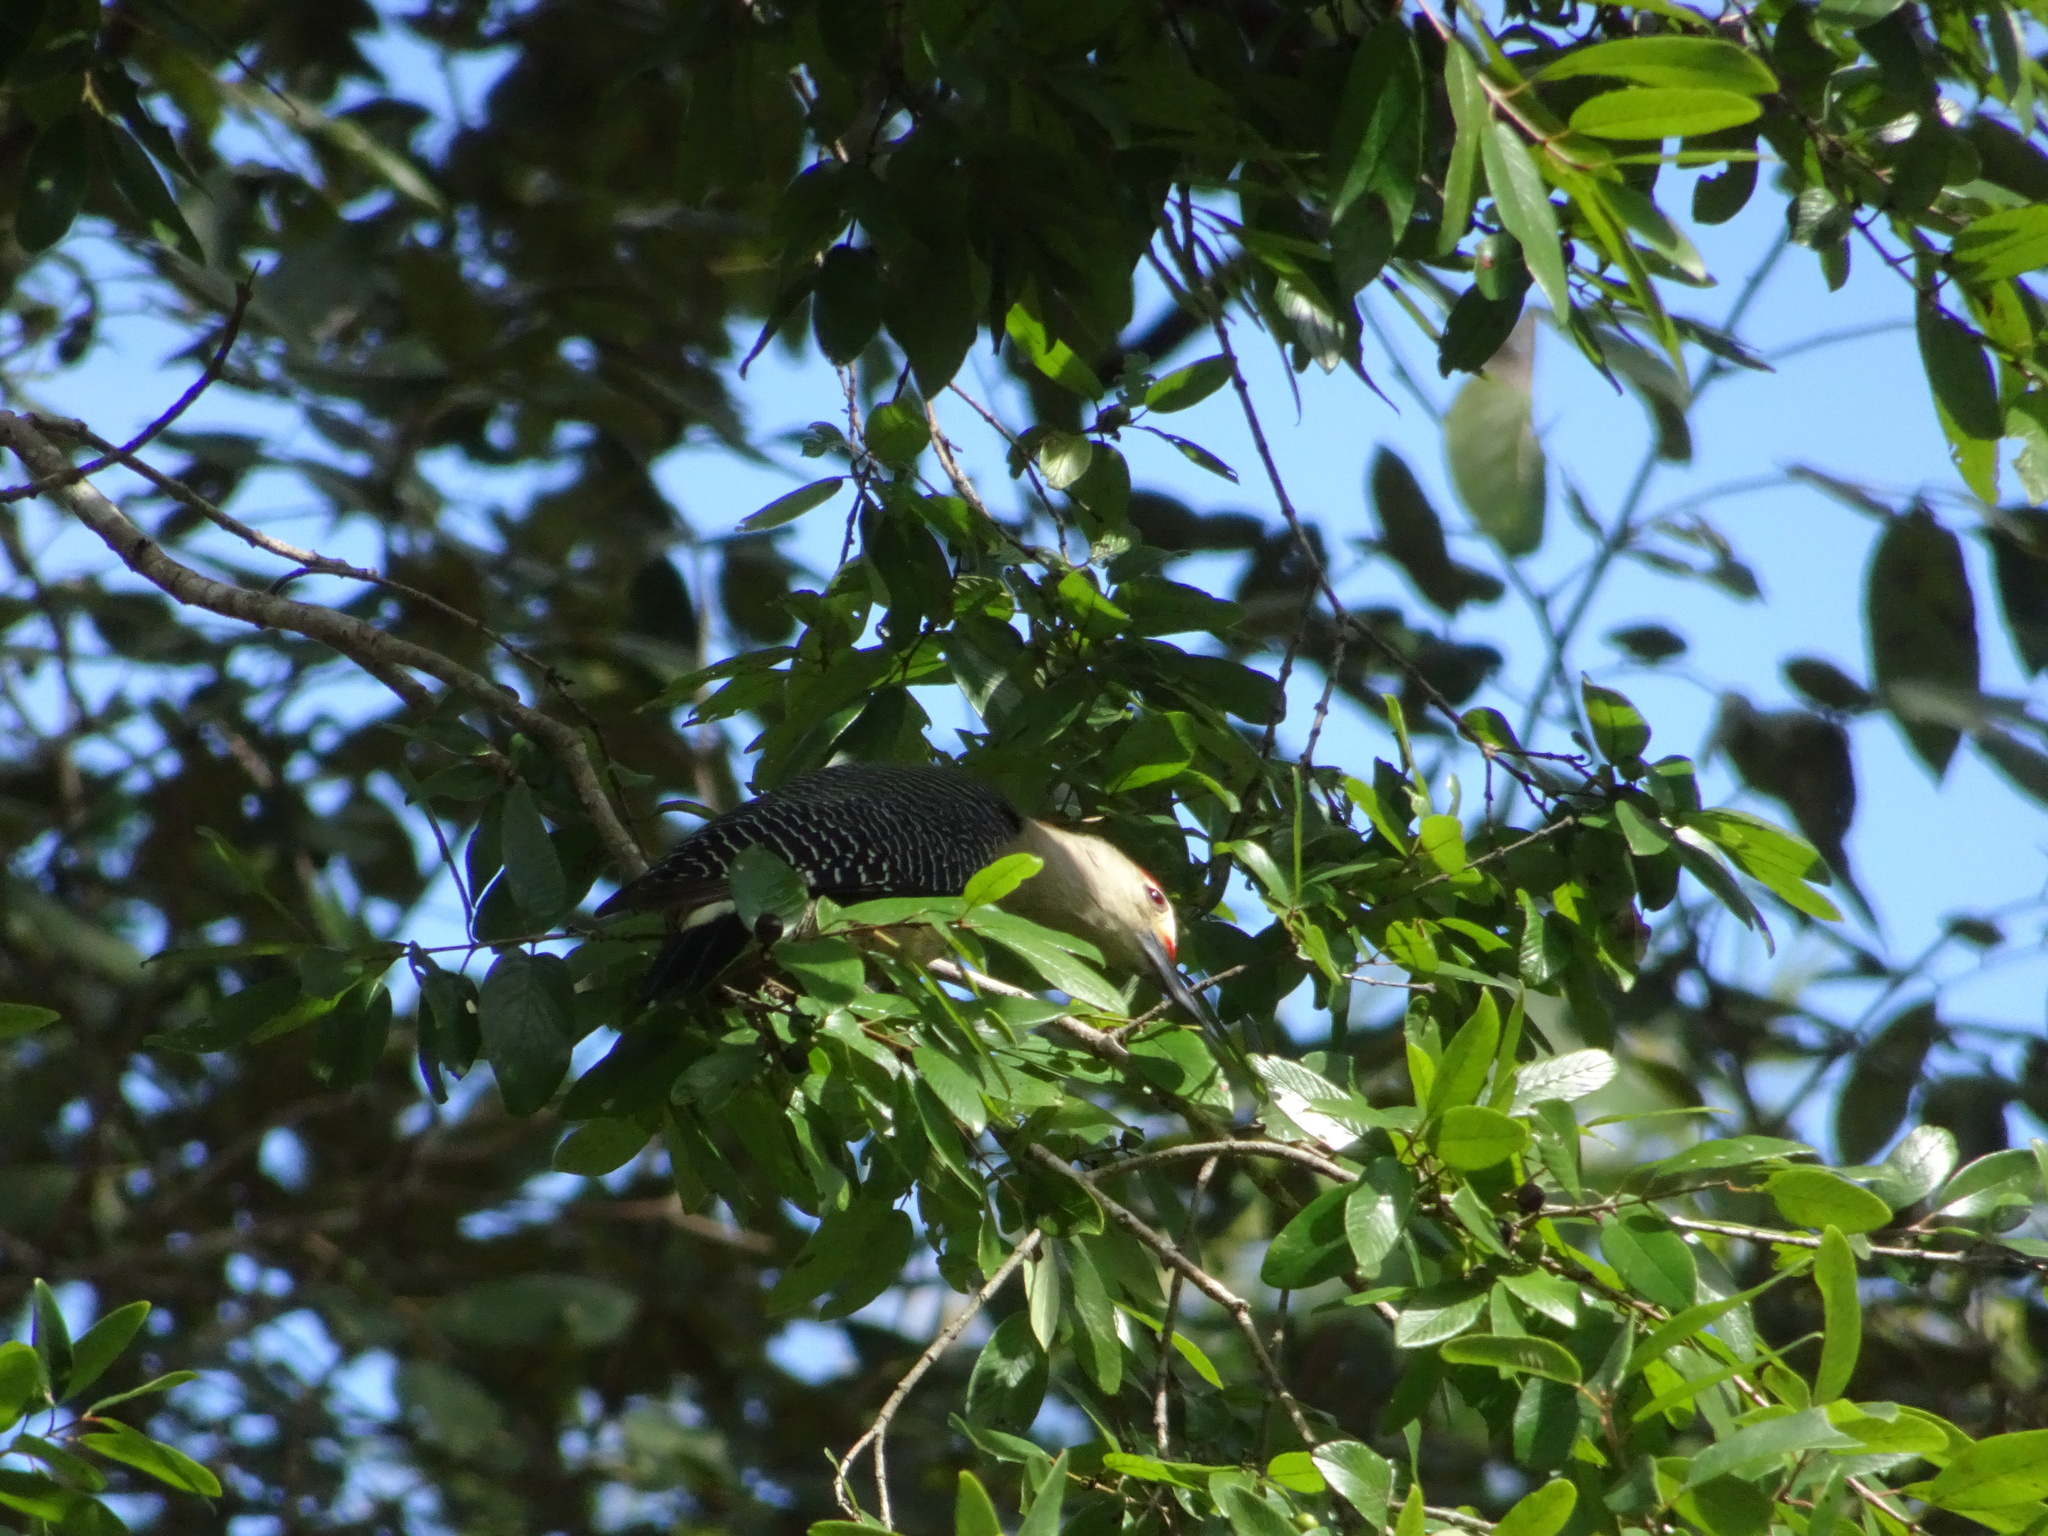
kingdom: Animalia
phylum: Chordata
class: Aves
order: Piciformes
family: Picidae
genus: Melanerpes
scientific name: Melanerpes santacruzi
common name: Velasquez's woodpecker
